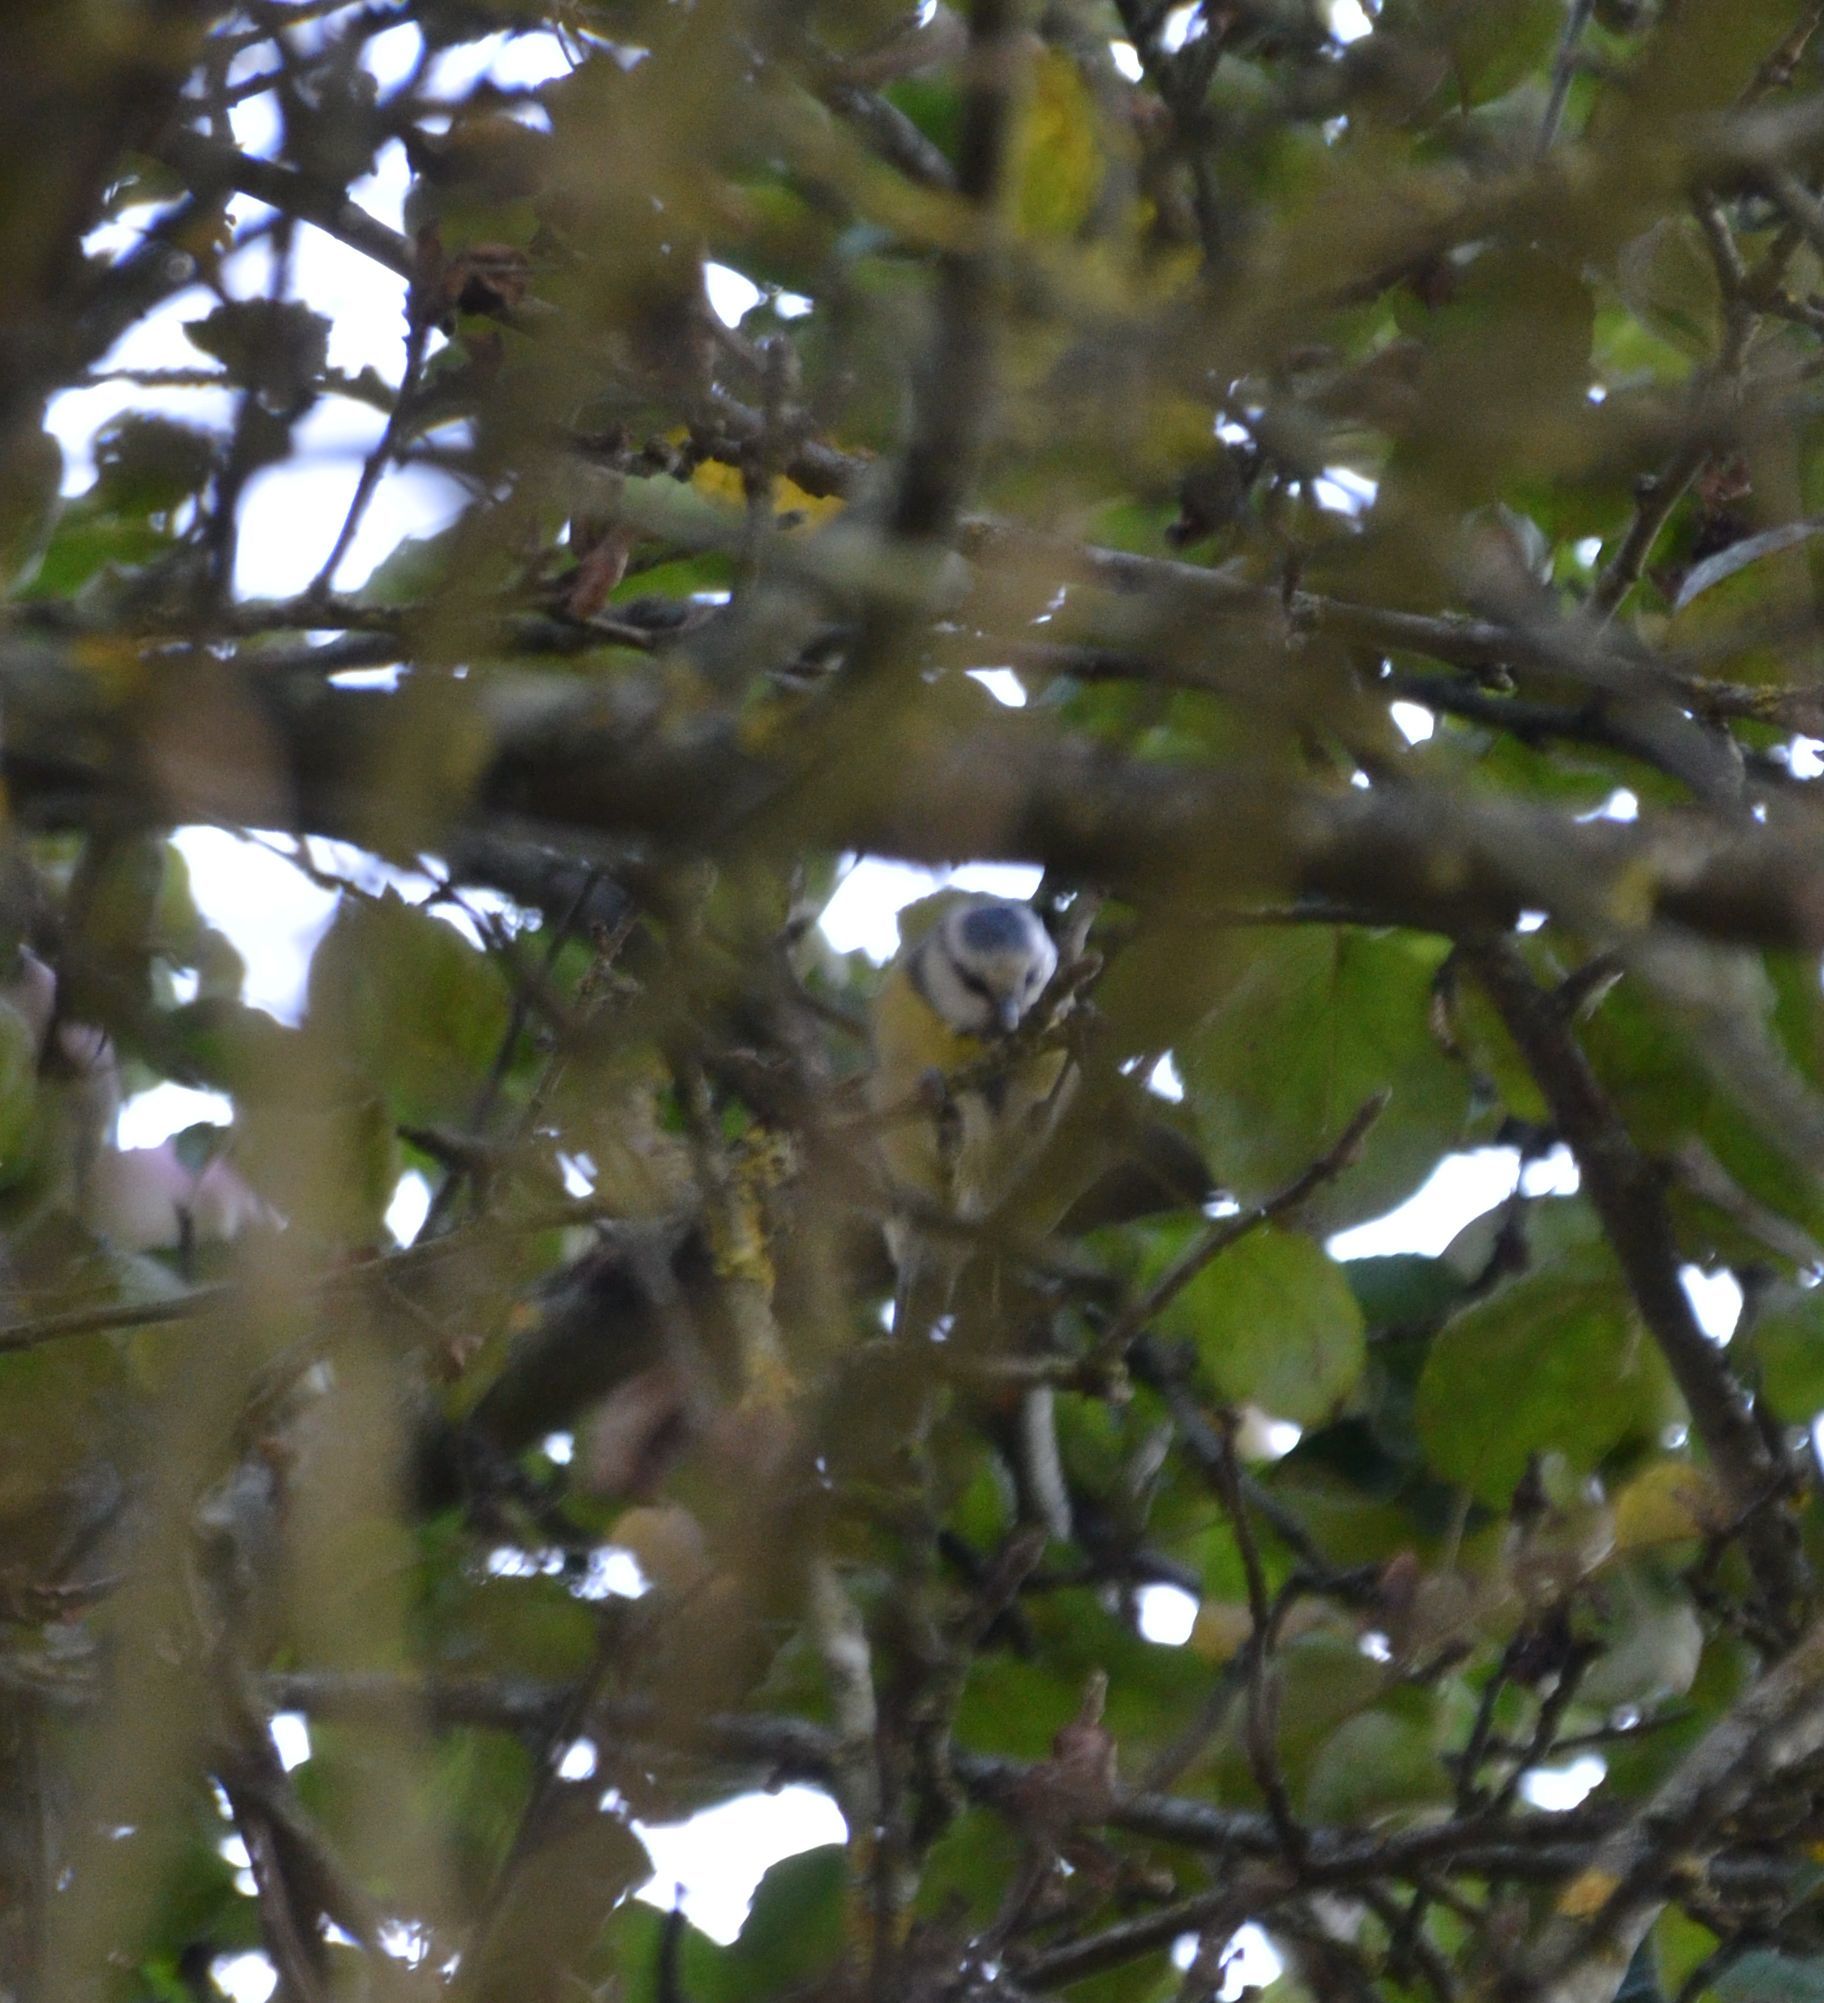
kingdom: Animalia
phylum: Chordata
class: Aves
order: Passeriformes
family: Paridae
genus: Cyanistes
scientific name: Cyanistes caeruleus
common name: Eurasian blue tit
